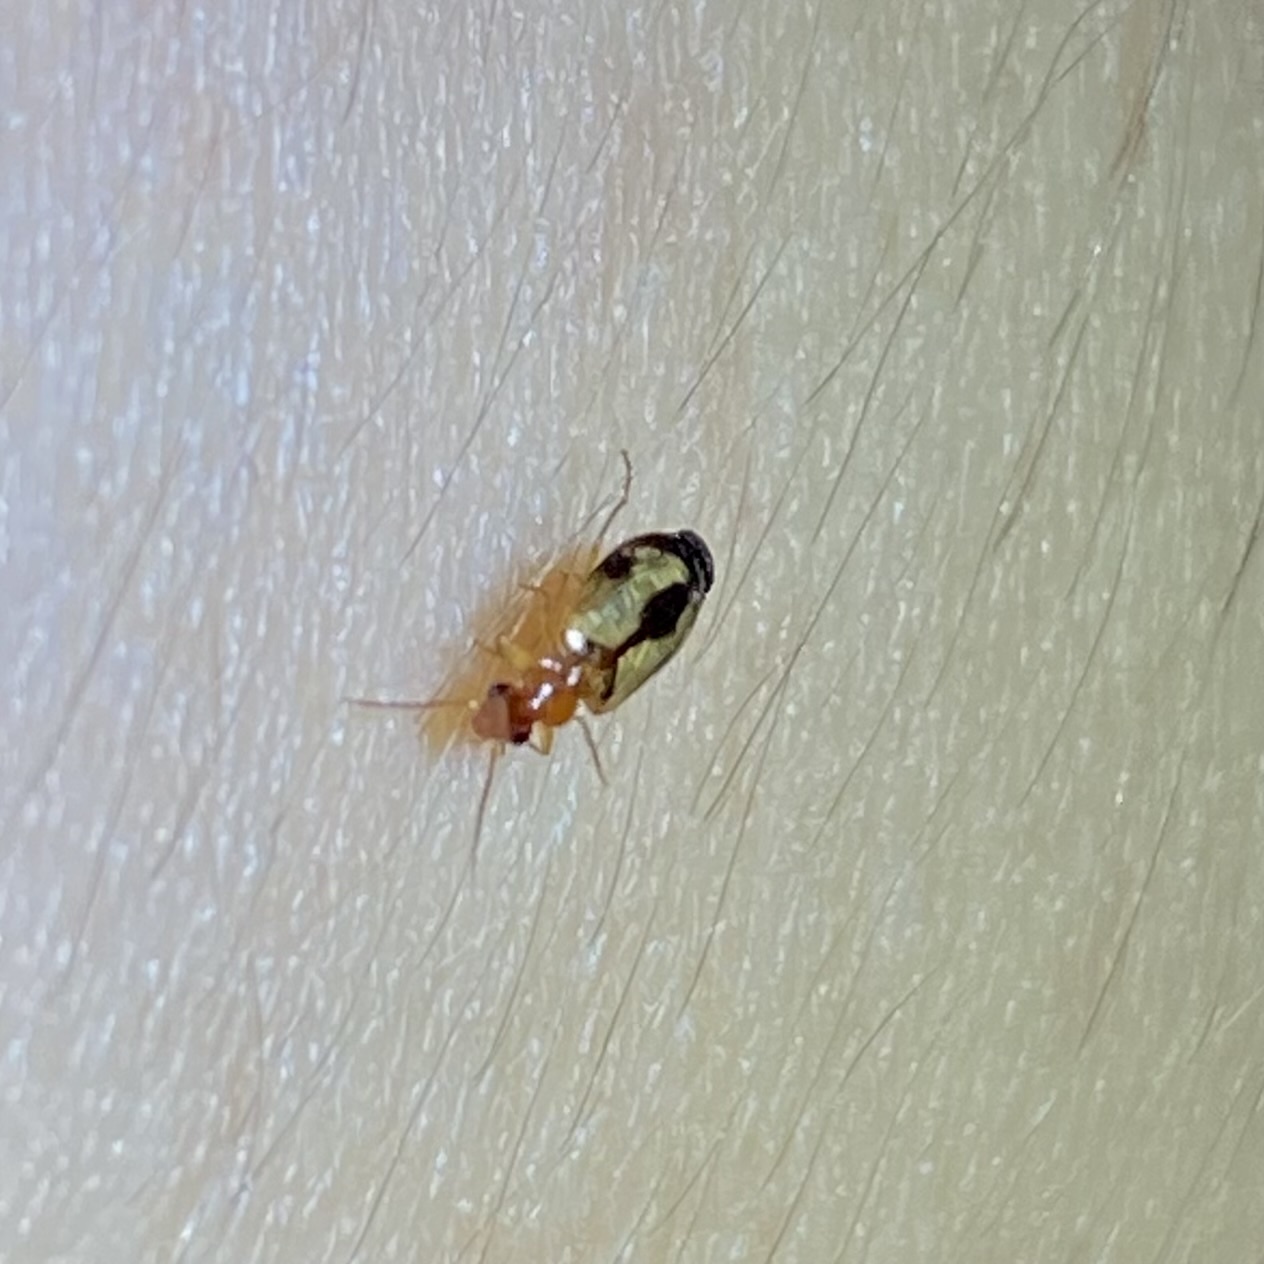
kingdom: Animalia
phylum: Arthropoda
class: Insecta
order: Coleoptera
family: Carabidae
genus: Lebia
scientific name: Lebia guttula
